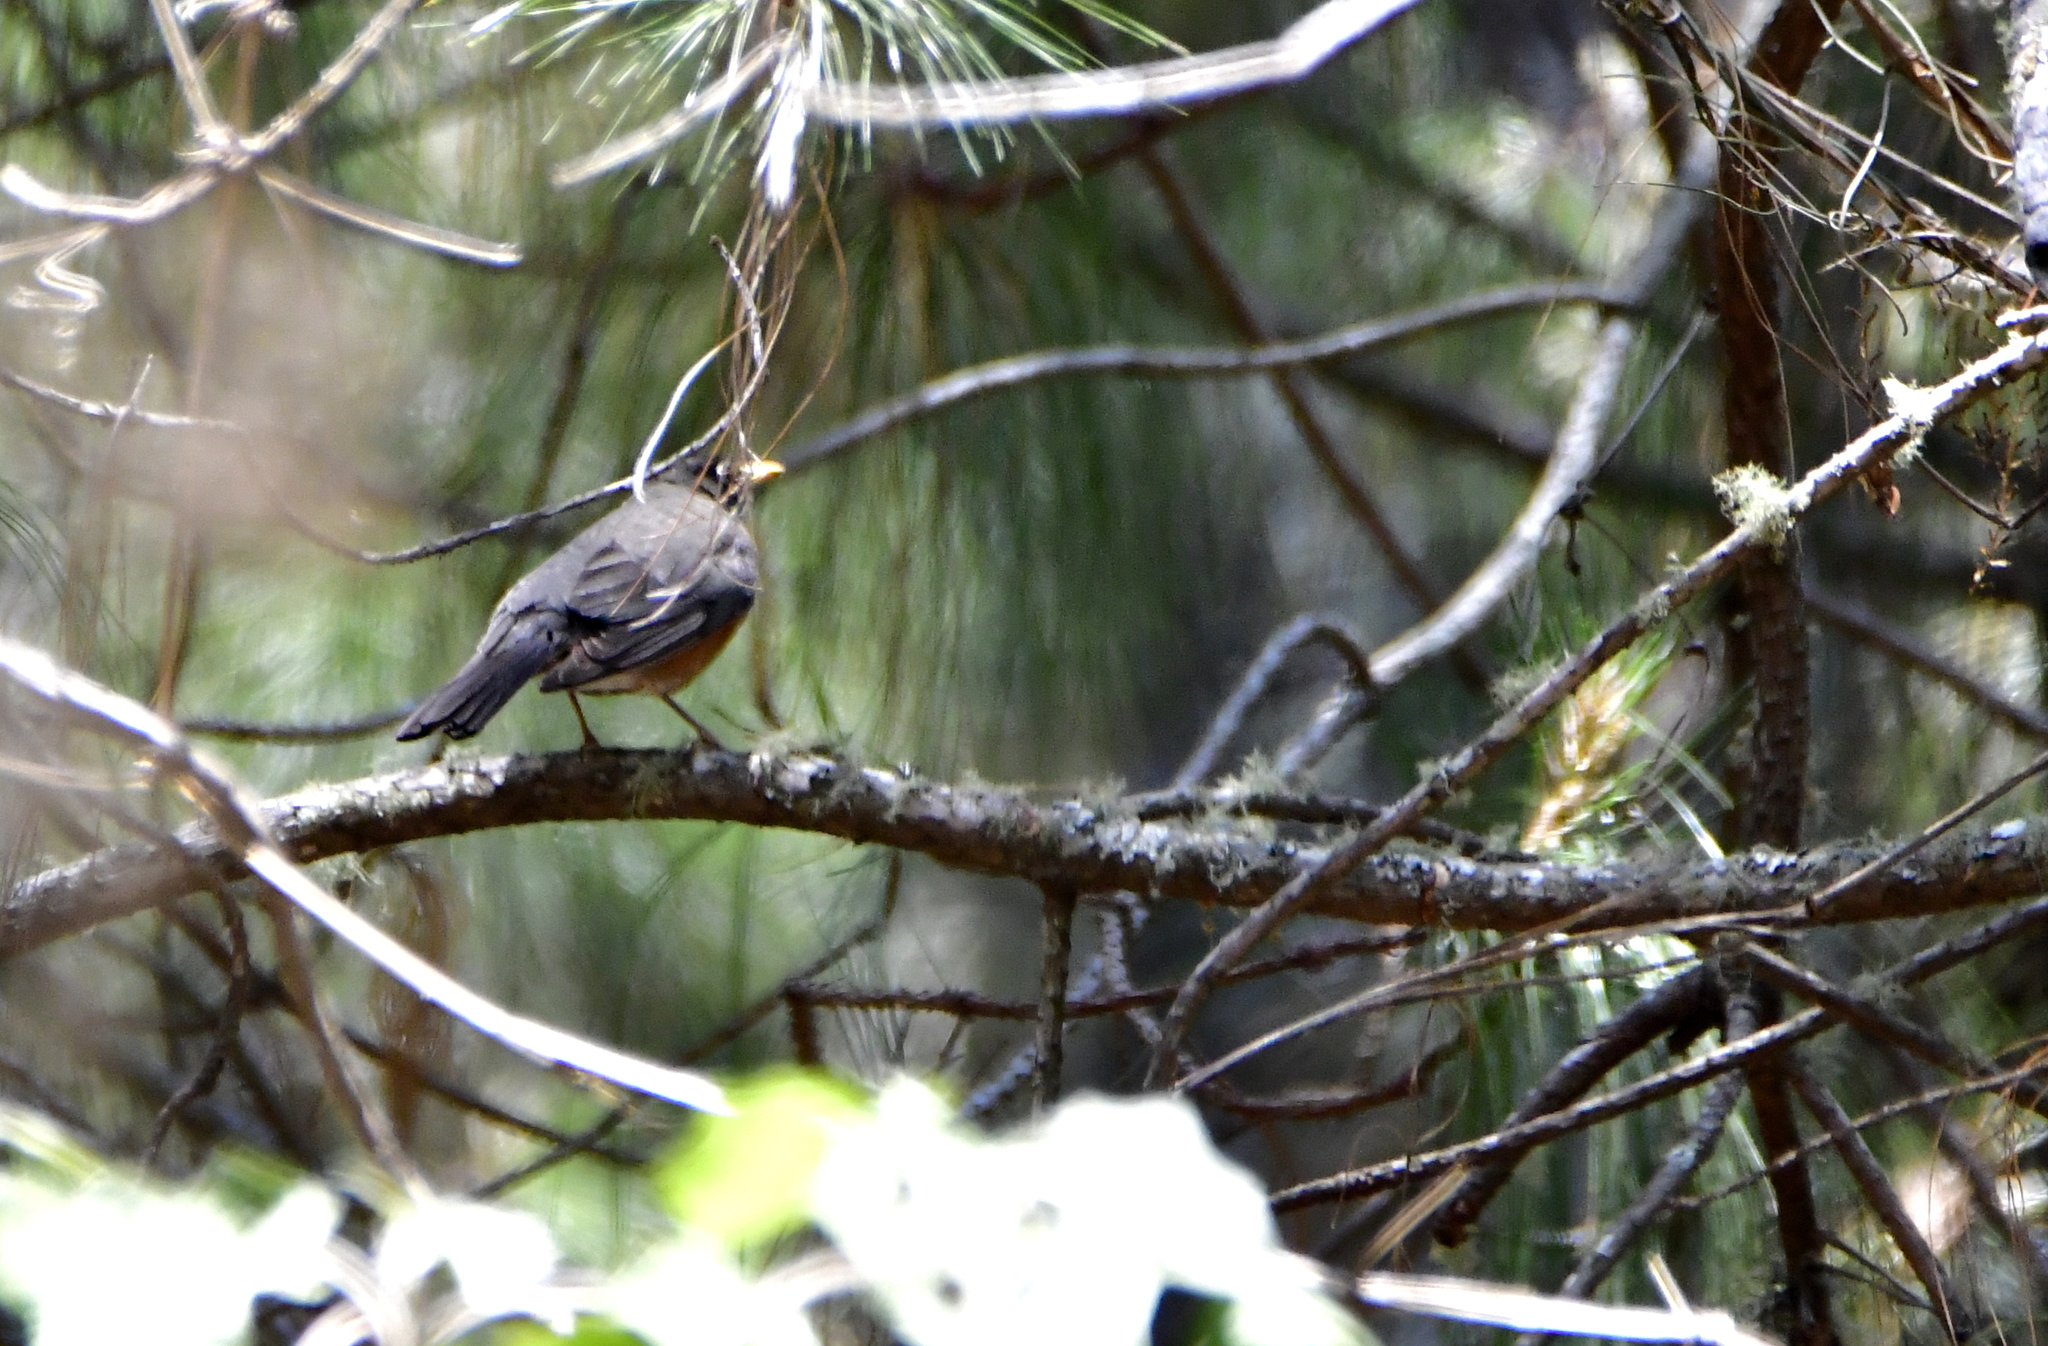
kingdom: Animalia
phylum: Chordata
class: Aves
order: Passeriformes
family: Turdidae
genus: Turdus
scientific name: Turdus migratorius
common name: American robin
